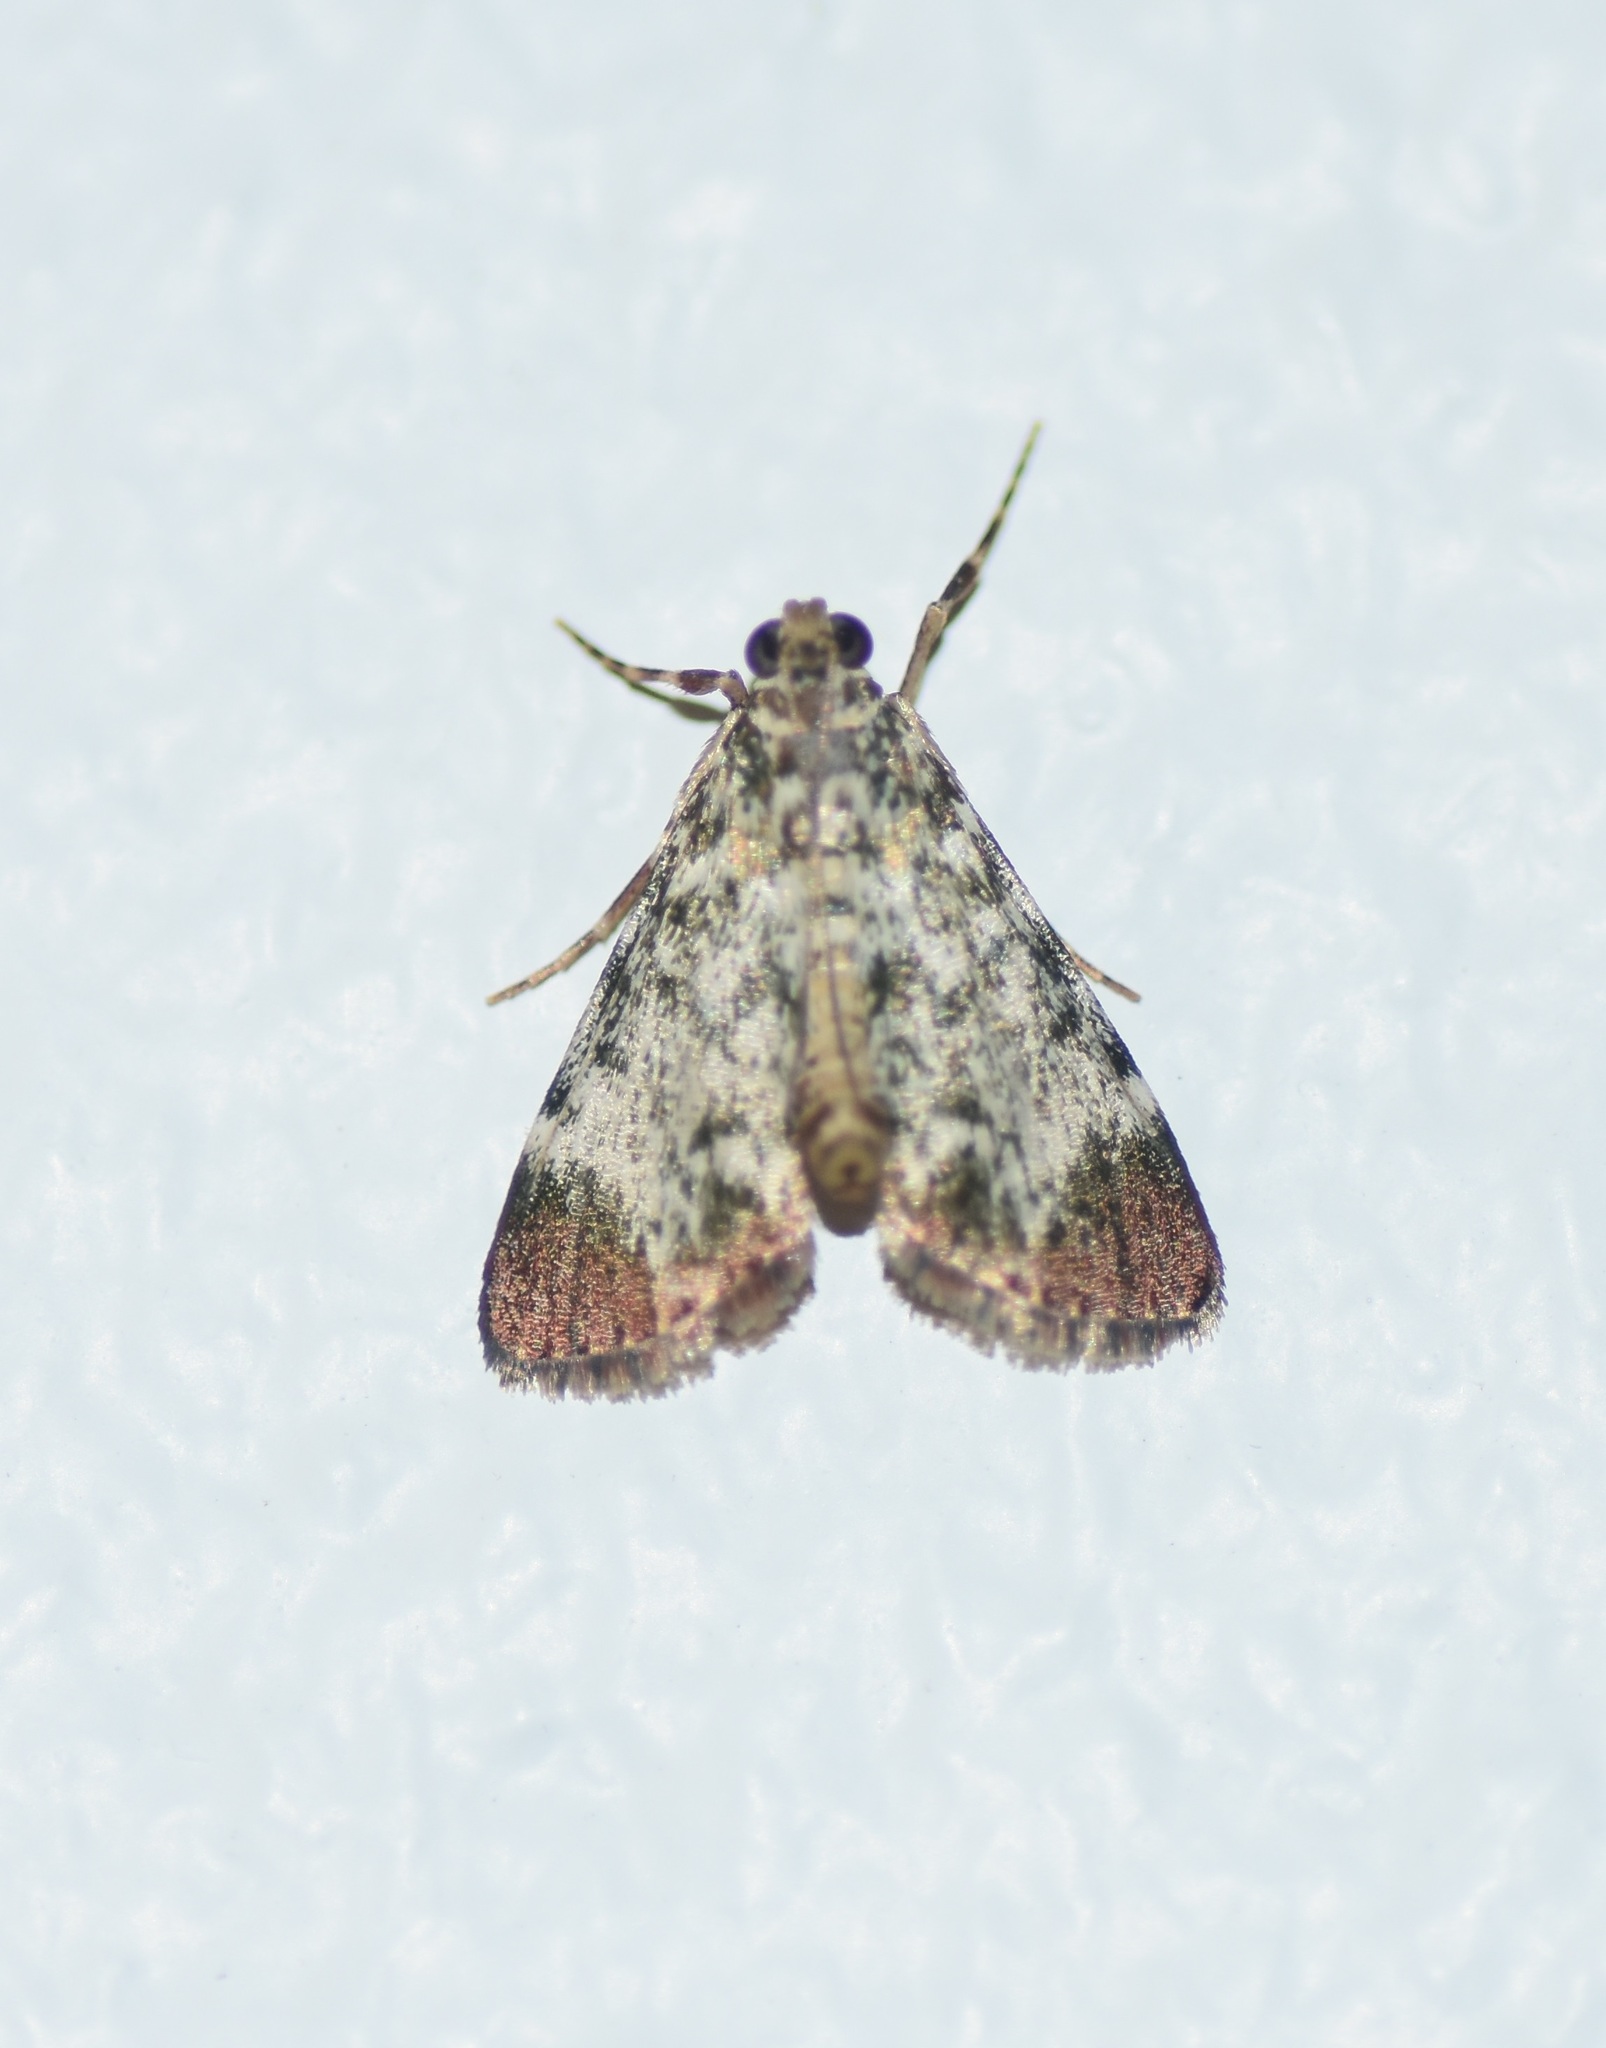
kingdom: Animalia
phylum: Arthropoda
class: Insecta
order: Lepidoptera
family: Pyralidae
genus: Macalla
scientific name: Macalla niveorufa
